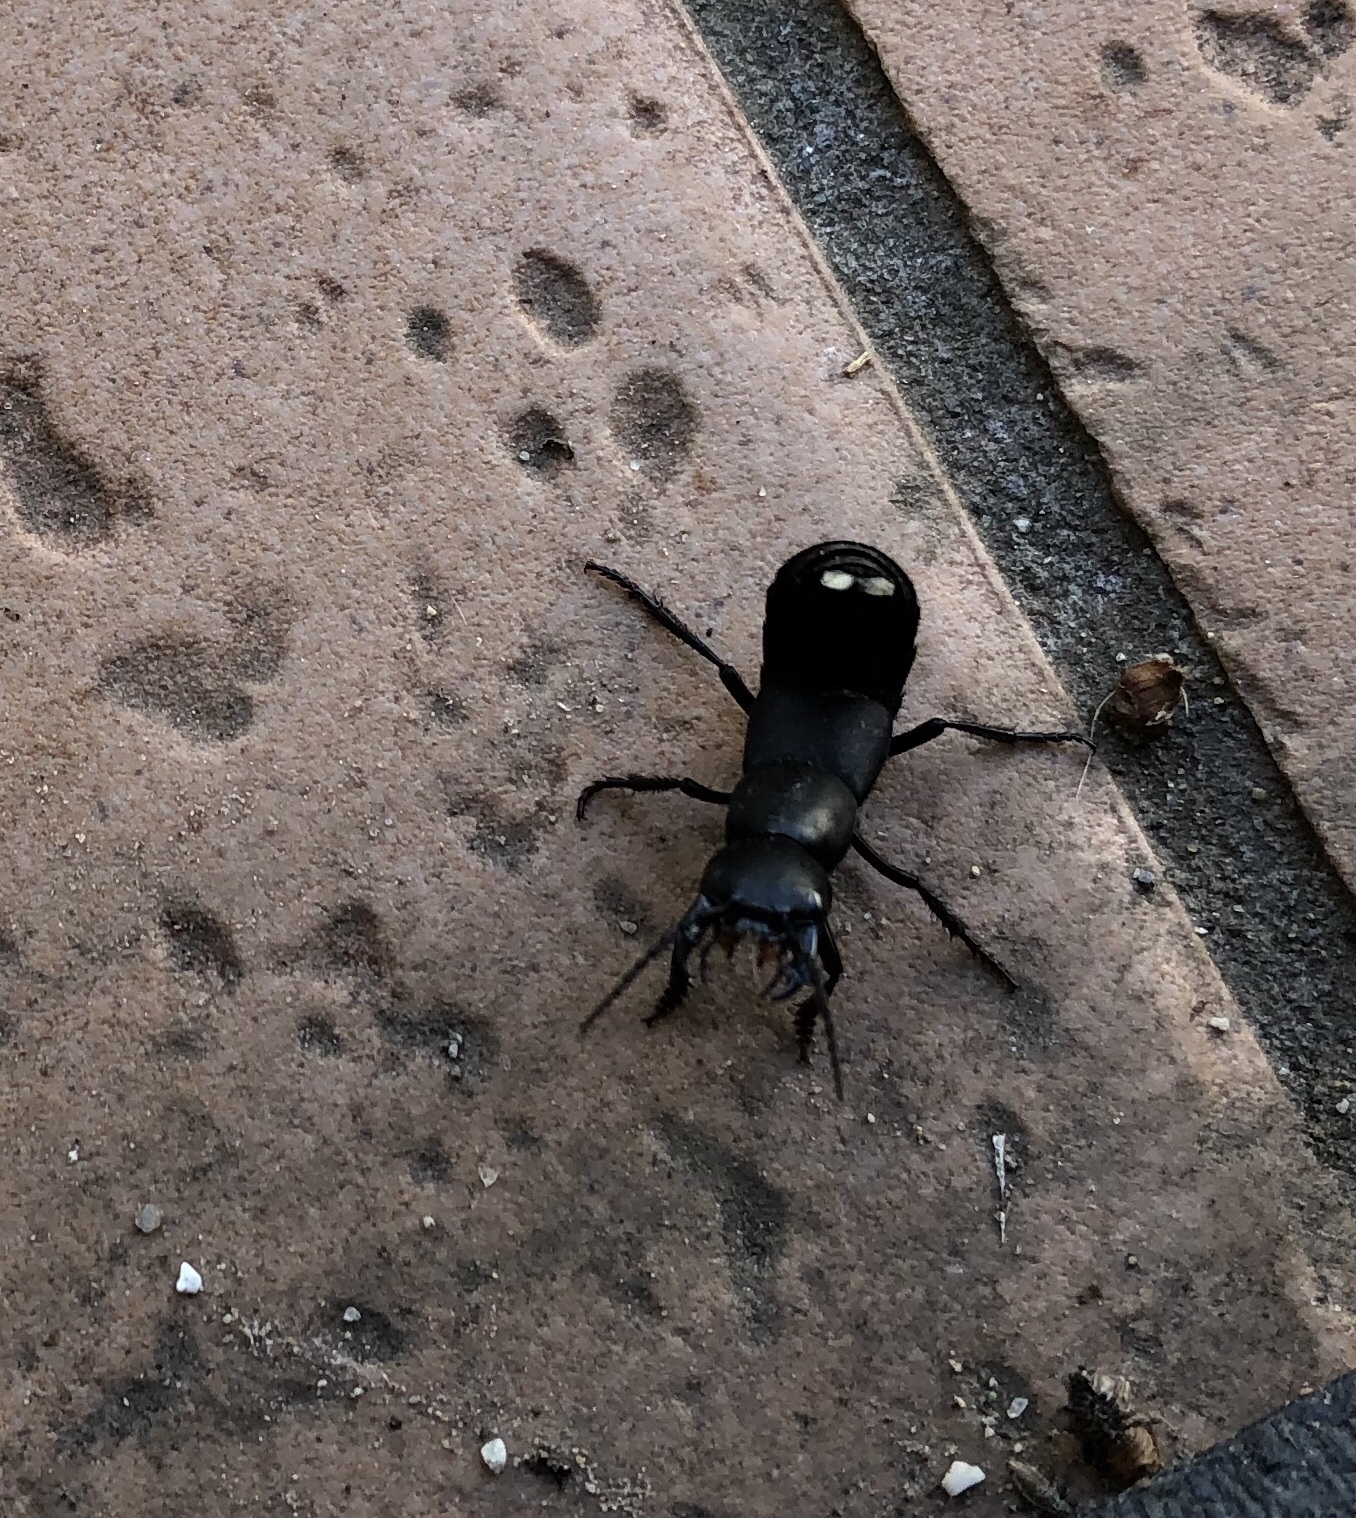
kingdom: Animalia
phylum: Arthropoda
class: Insecta
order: Coleoptera
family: Staphylinidae
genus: Ocypus
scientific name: Ocypus olens
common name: Devil's coach-horse
